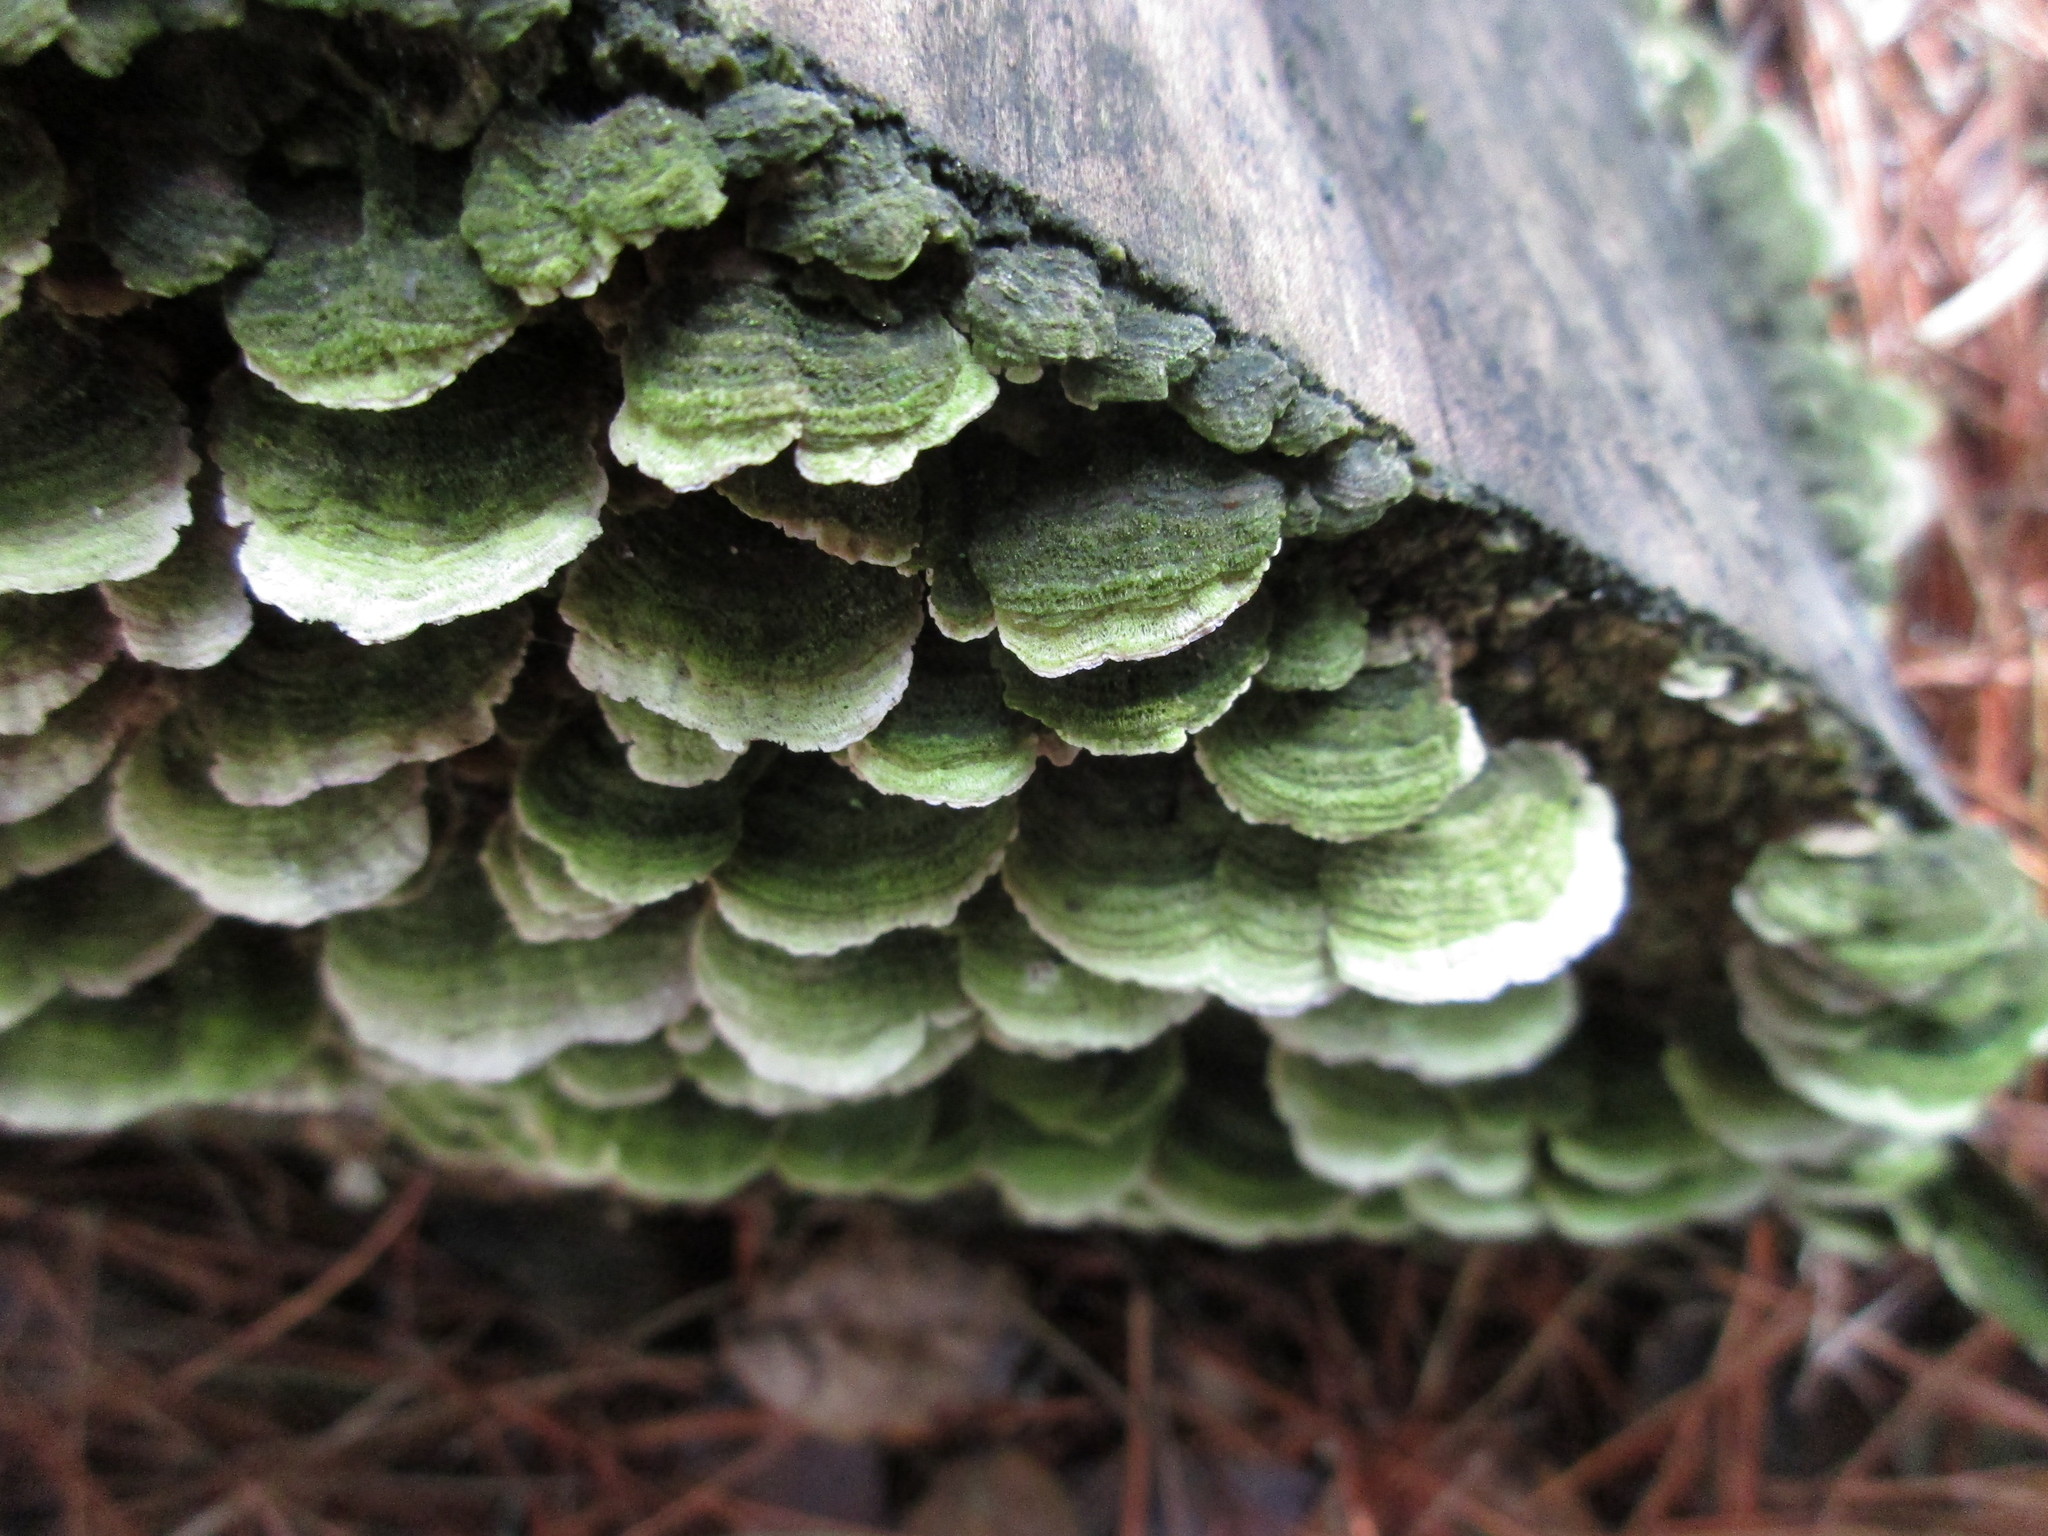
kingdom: Fungi
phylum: Basidiomycota
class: Agaricomycetes
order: Hymenochaetales
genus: Trichaptum
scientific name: Trichaptum abietinum
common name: Purplepore bracket
